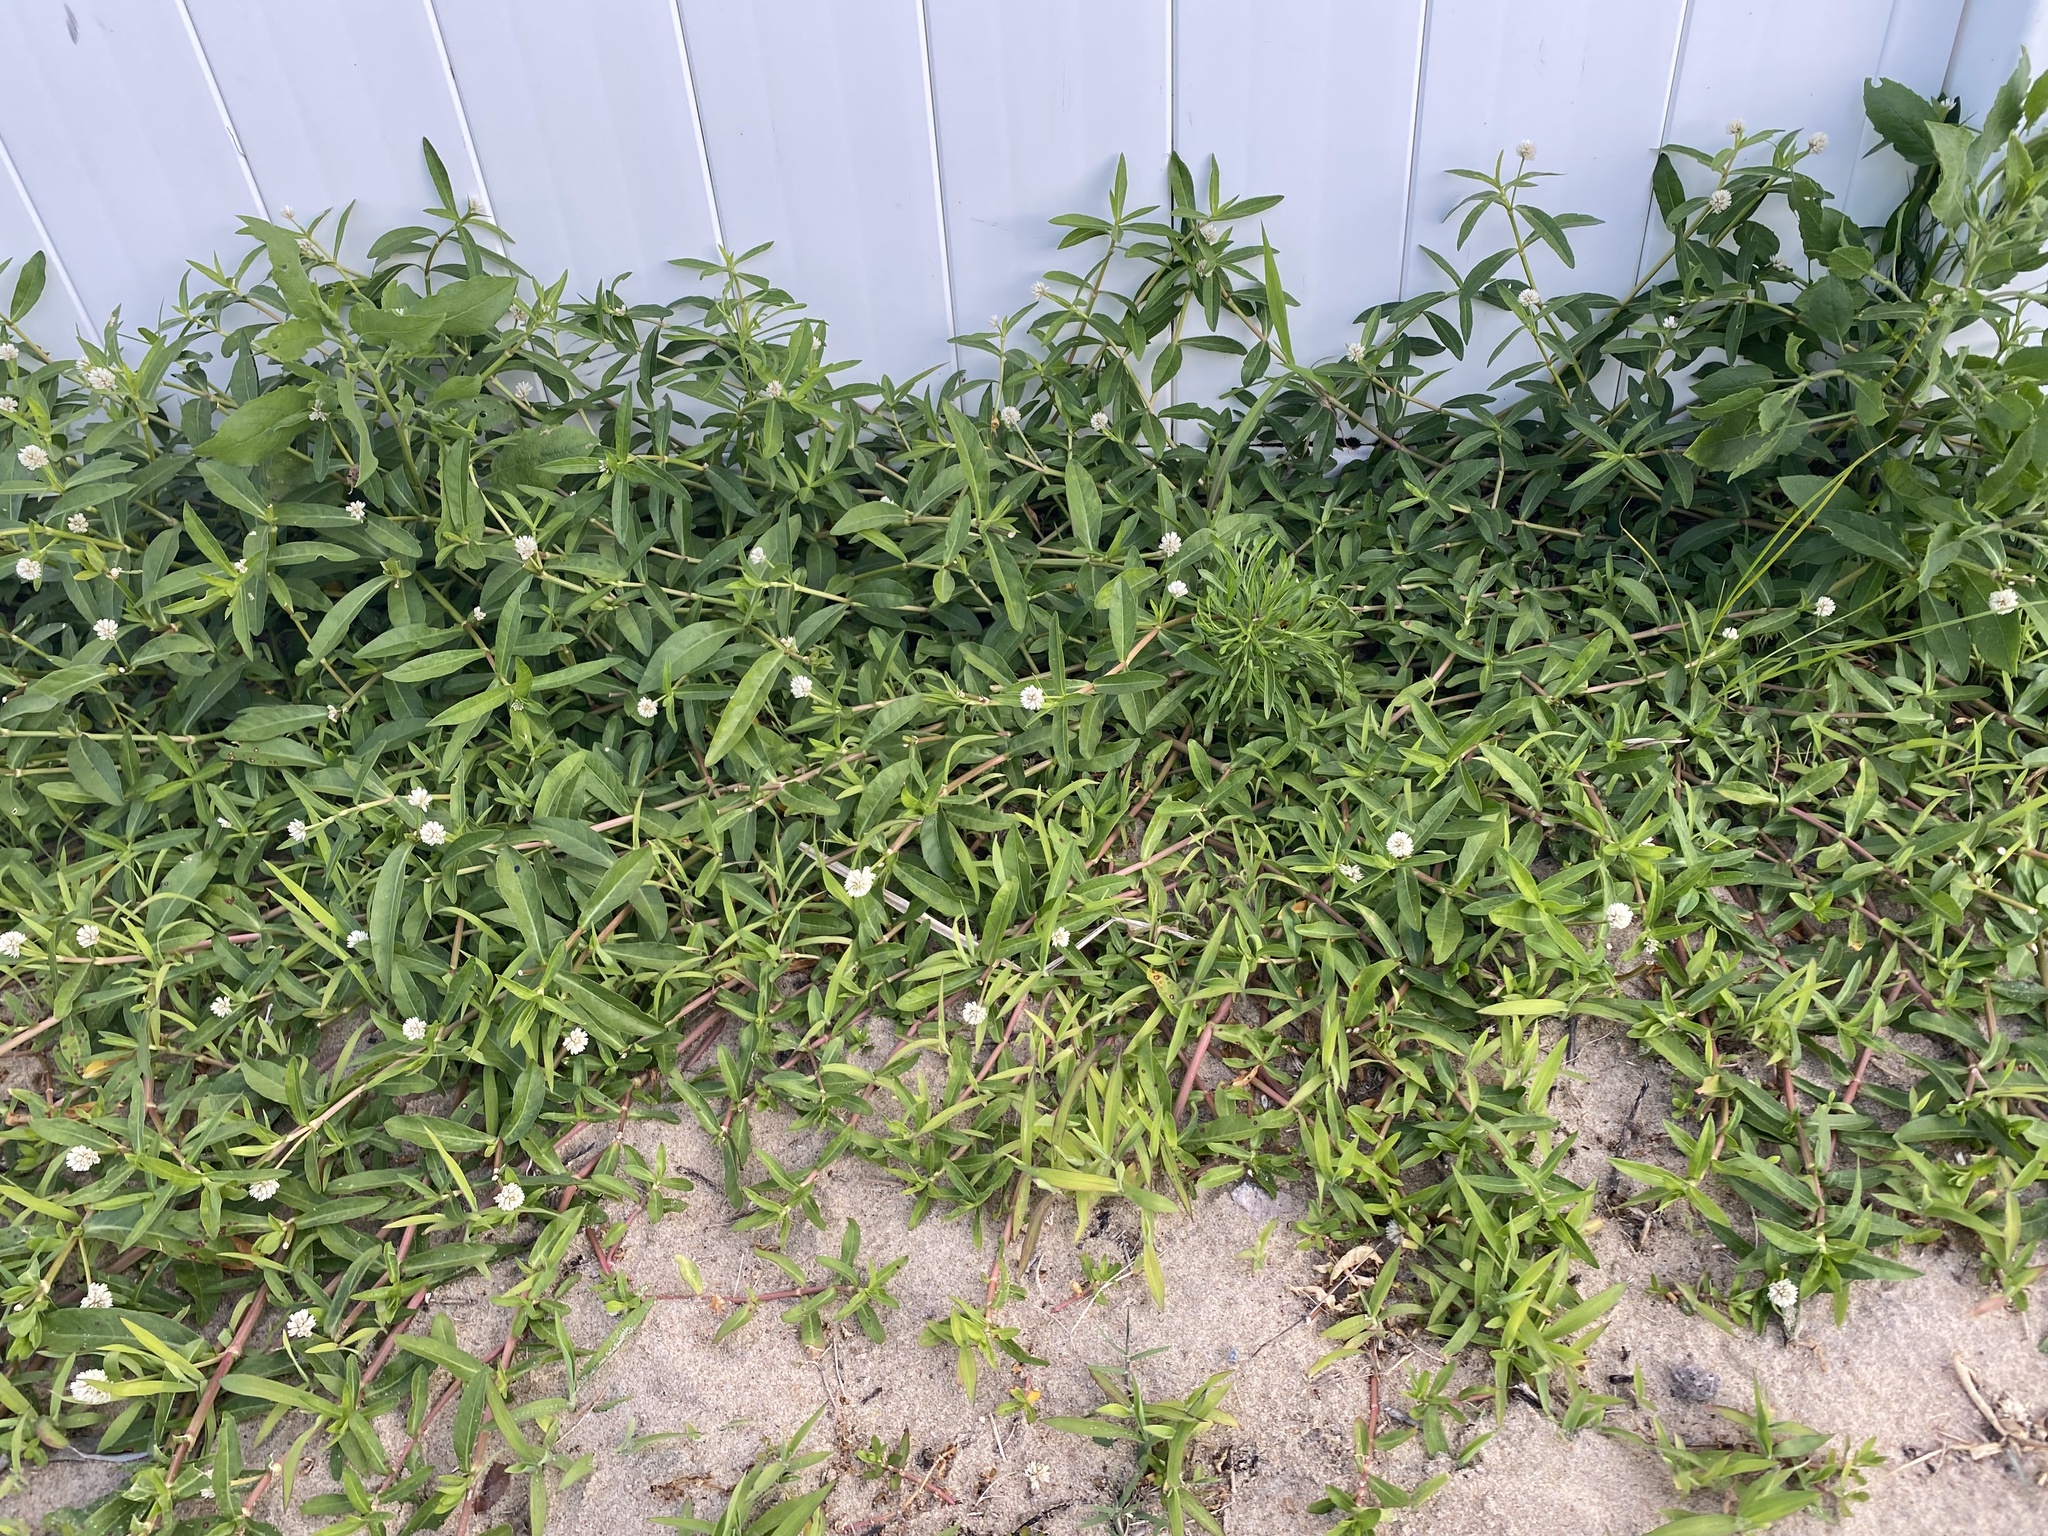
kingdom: Plantae
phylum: Tracheophyta
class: Magnoliopsida
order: Caryophyllales
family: Amaranthaceae
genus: Alternanthera
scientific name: Alternanthera philoxeroides
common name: Alligatorweed
